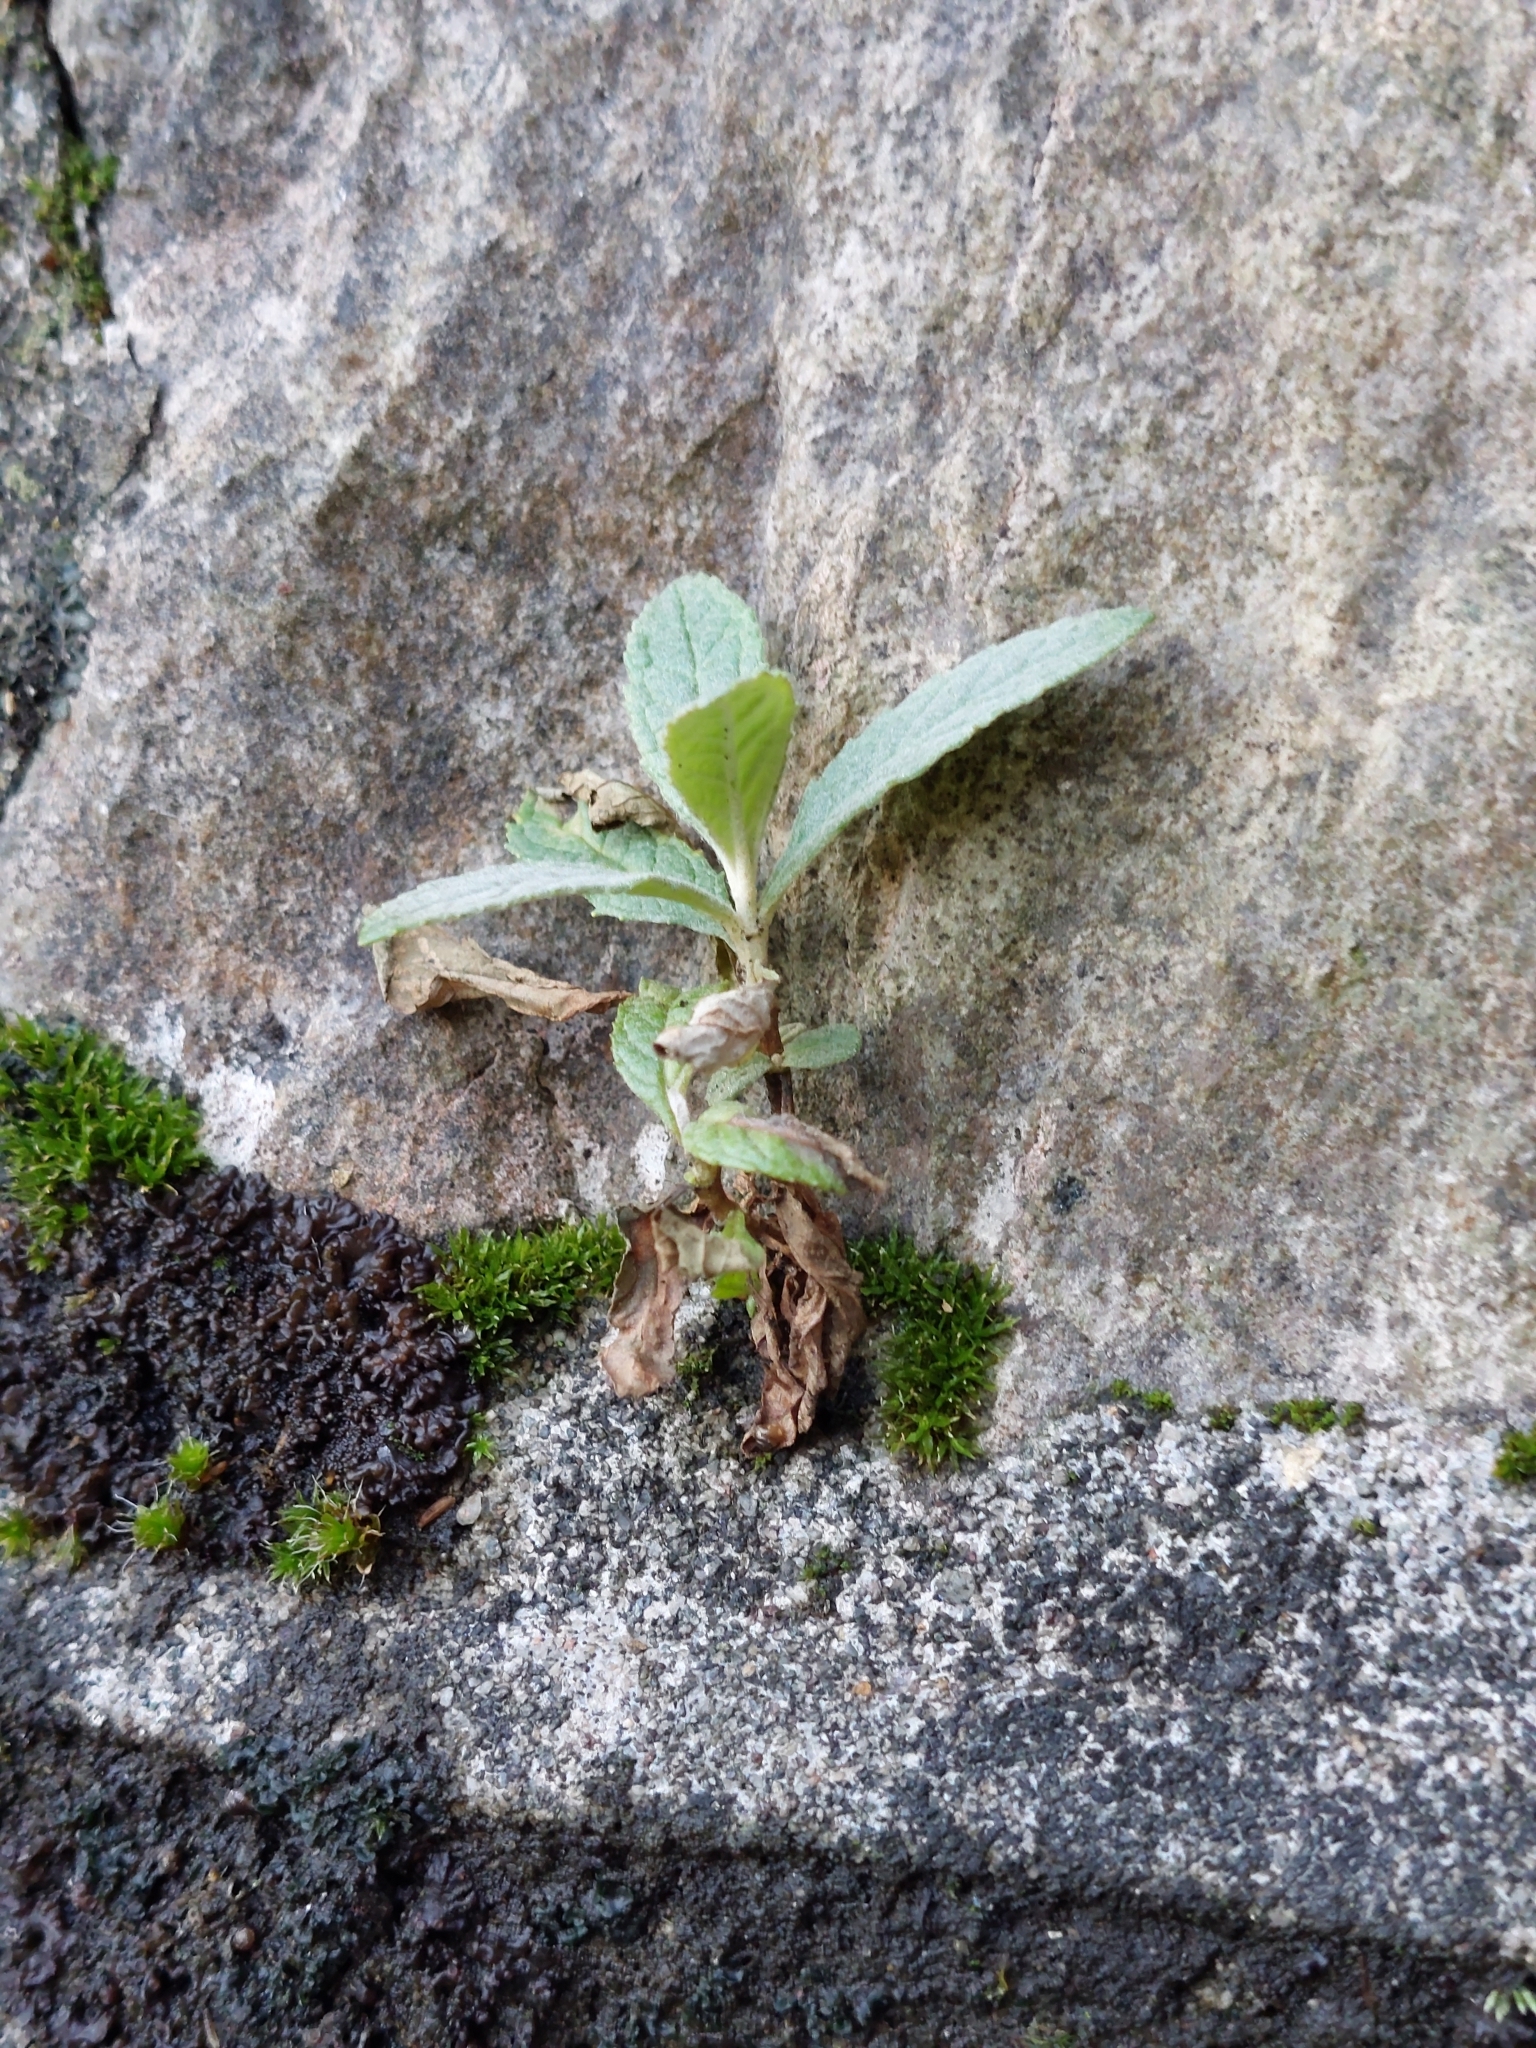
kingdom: Plantae
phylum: Tracheophyta
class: Magnoliopsida
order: Lamiales
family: Scrophulariaceae
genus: Buddleja
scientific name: Buddleja davidii
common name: Butterfly-bush
